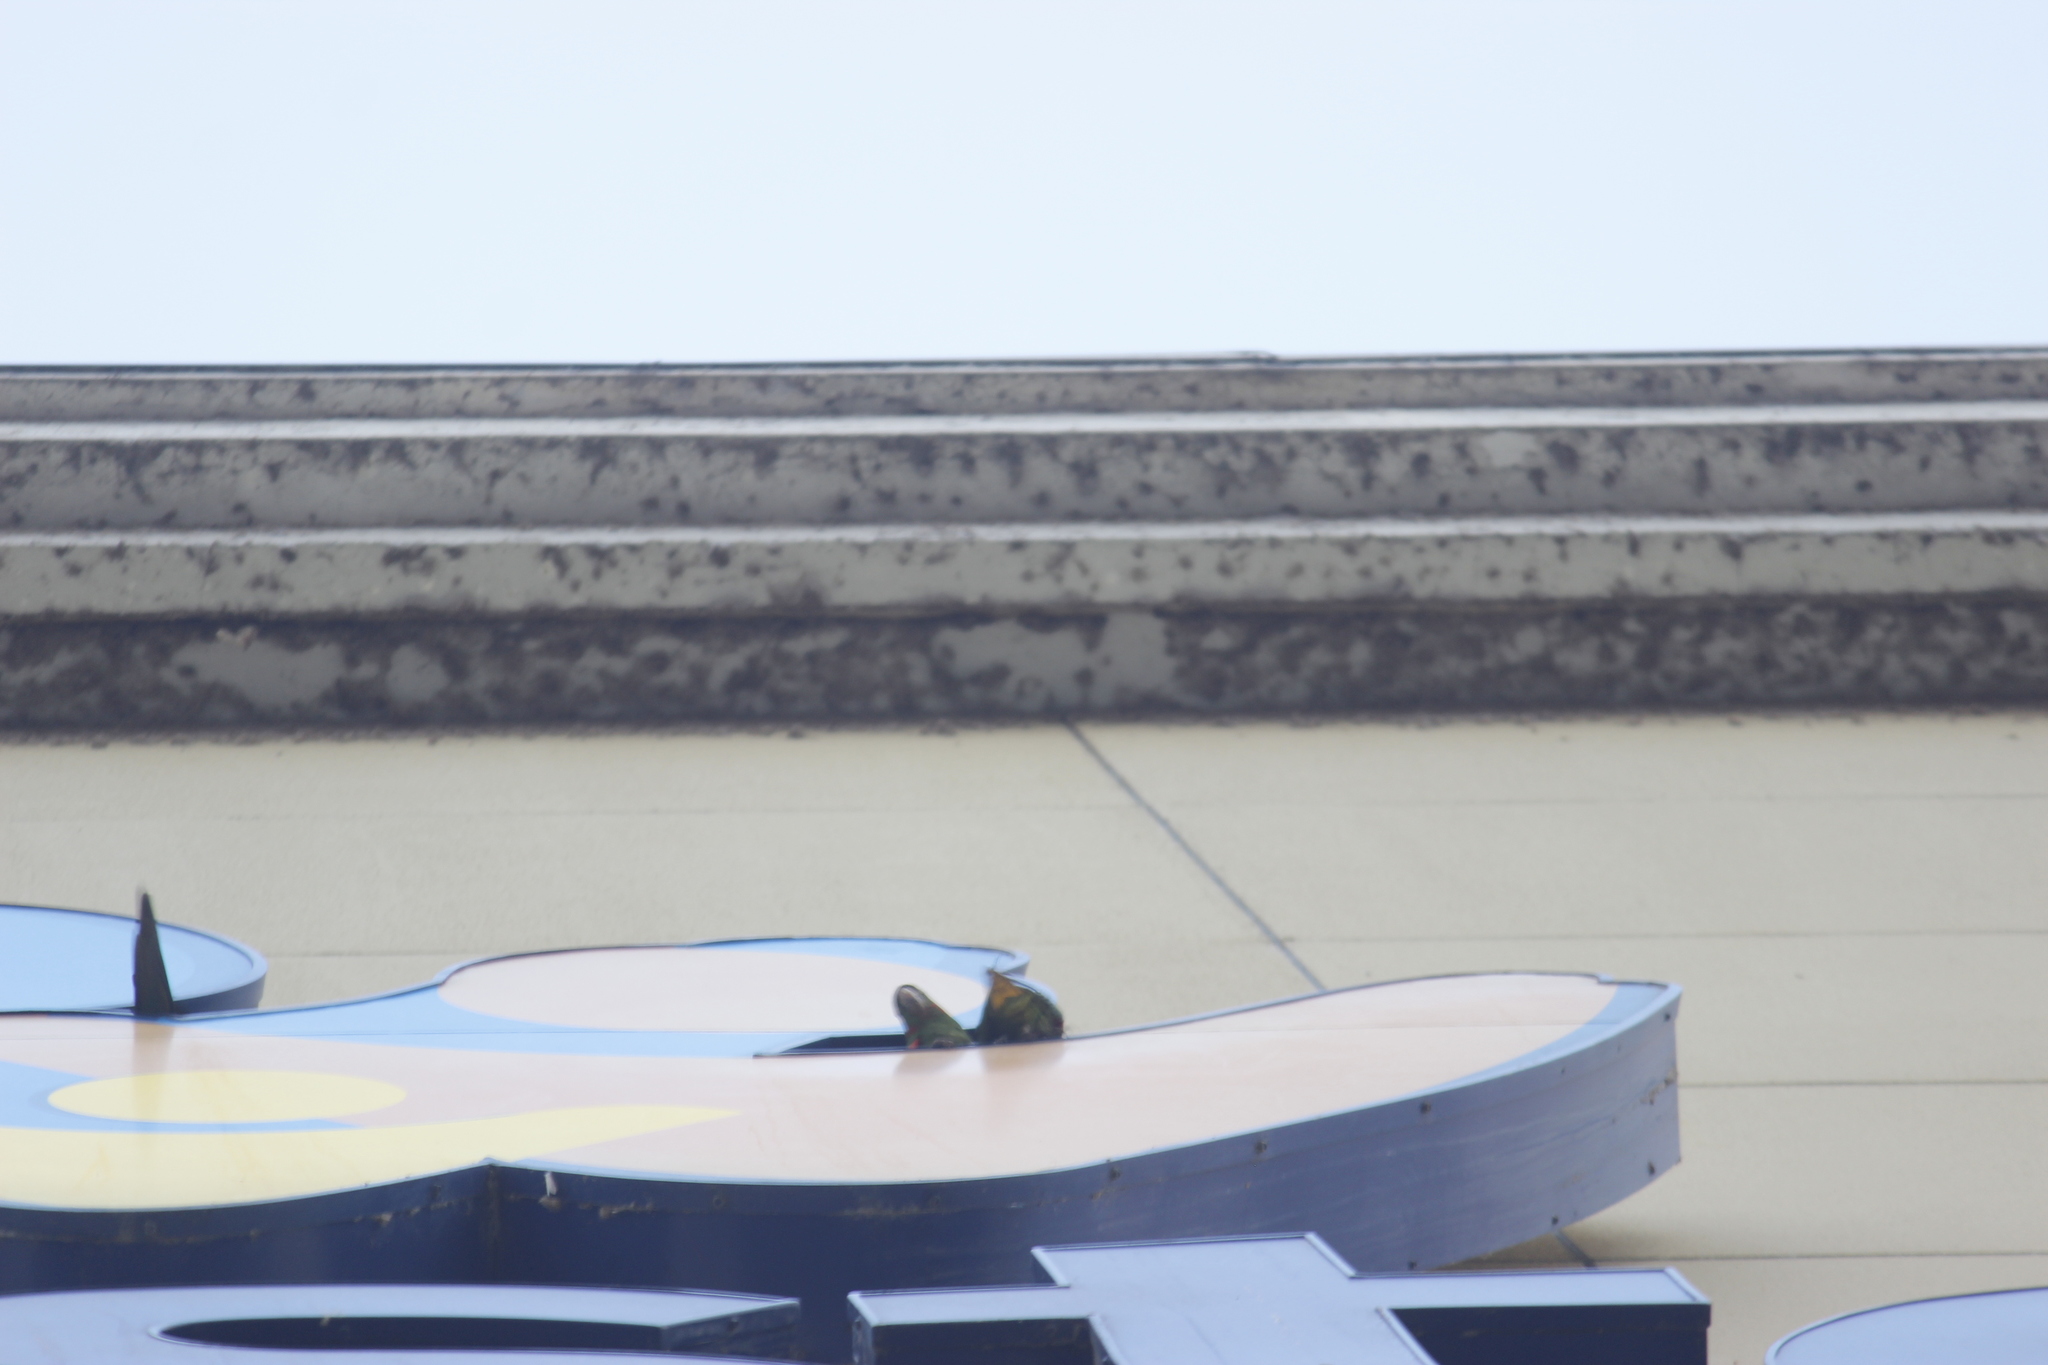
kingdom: Animalia
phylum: Chordata
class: Aves
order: Psittaciformes
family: Psittacidae
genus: Aratinga
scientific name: Aratinga leucophthalma
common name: White-eyed parakeet
